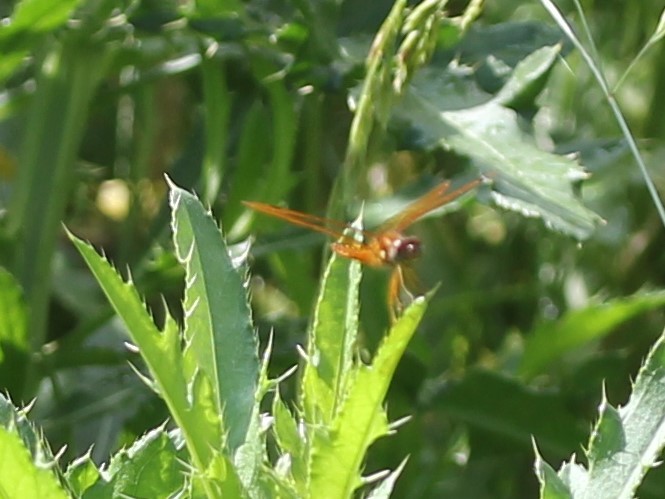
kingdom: Animalia
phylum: Arthropoda
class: Insecta
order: Odonata
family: Libellulidae
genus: Perithemis
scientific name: Perithemis tenera
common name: Eastern amberwing
